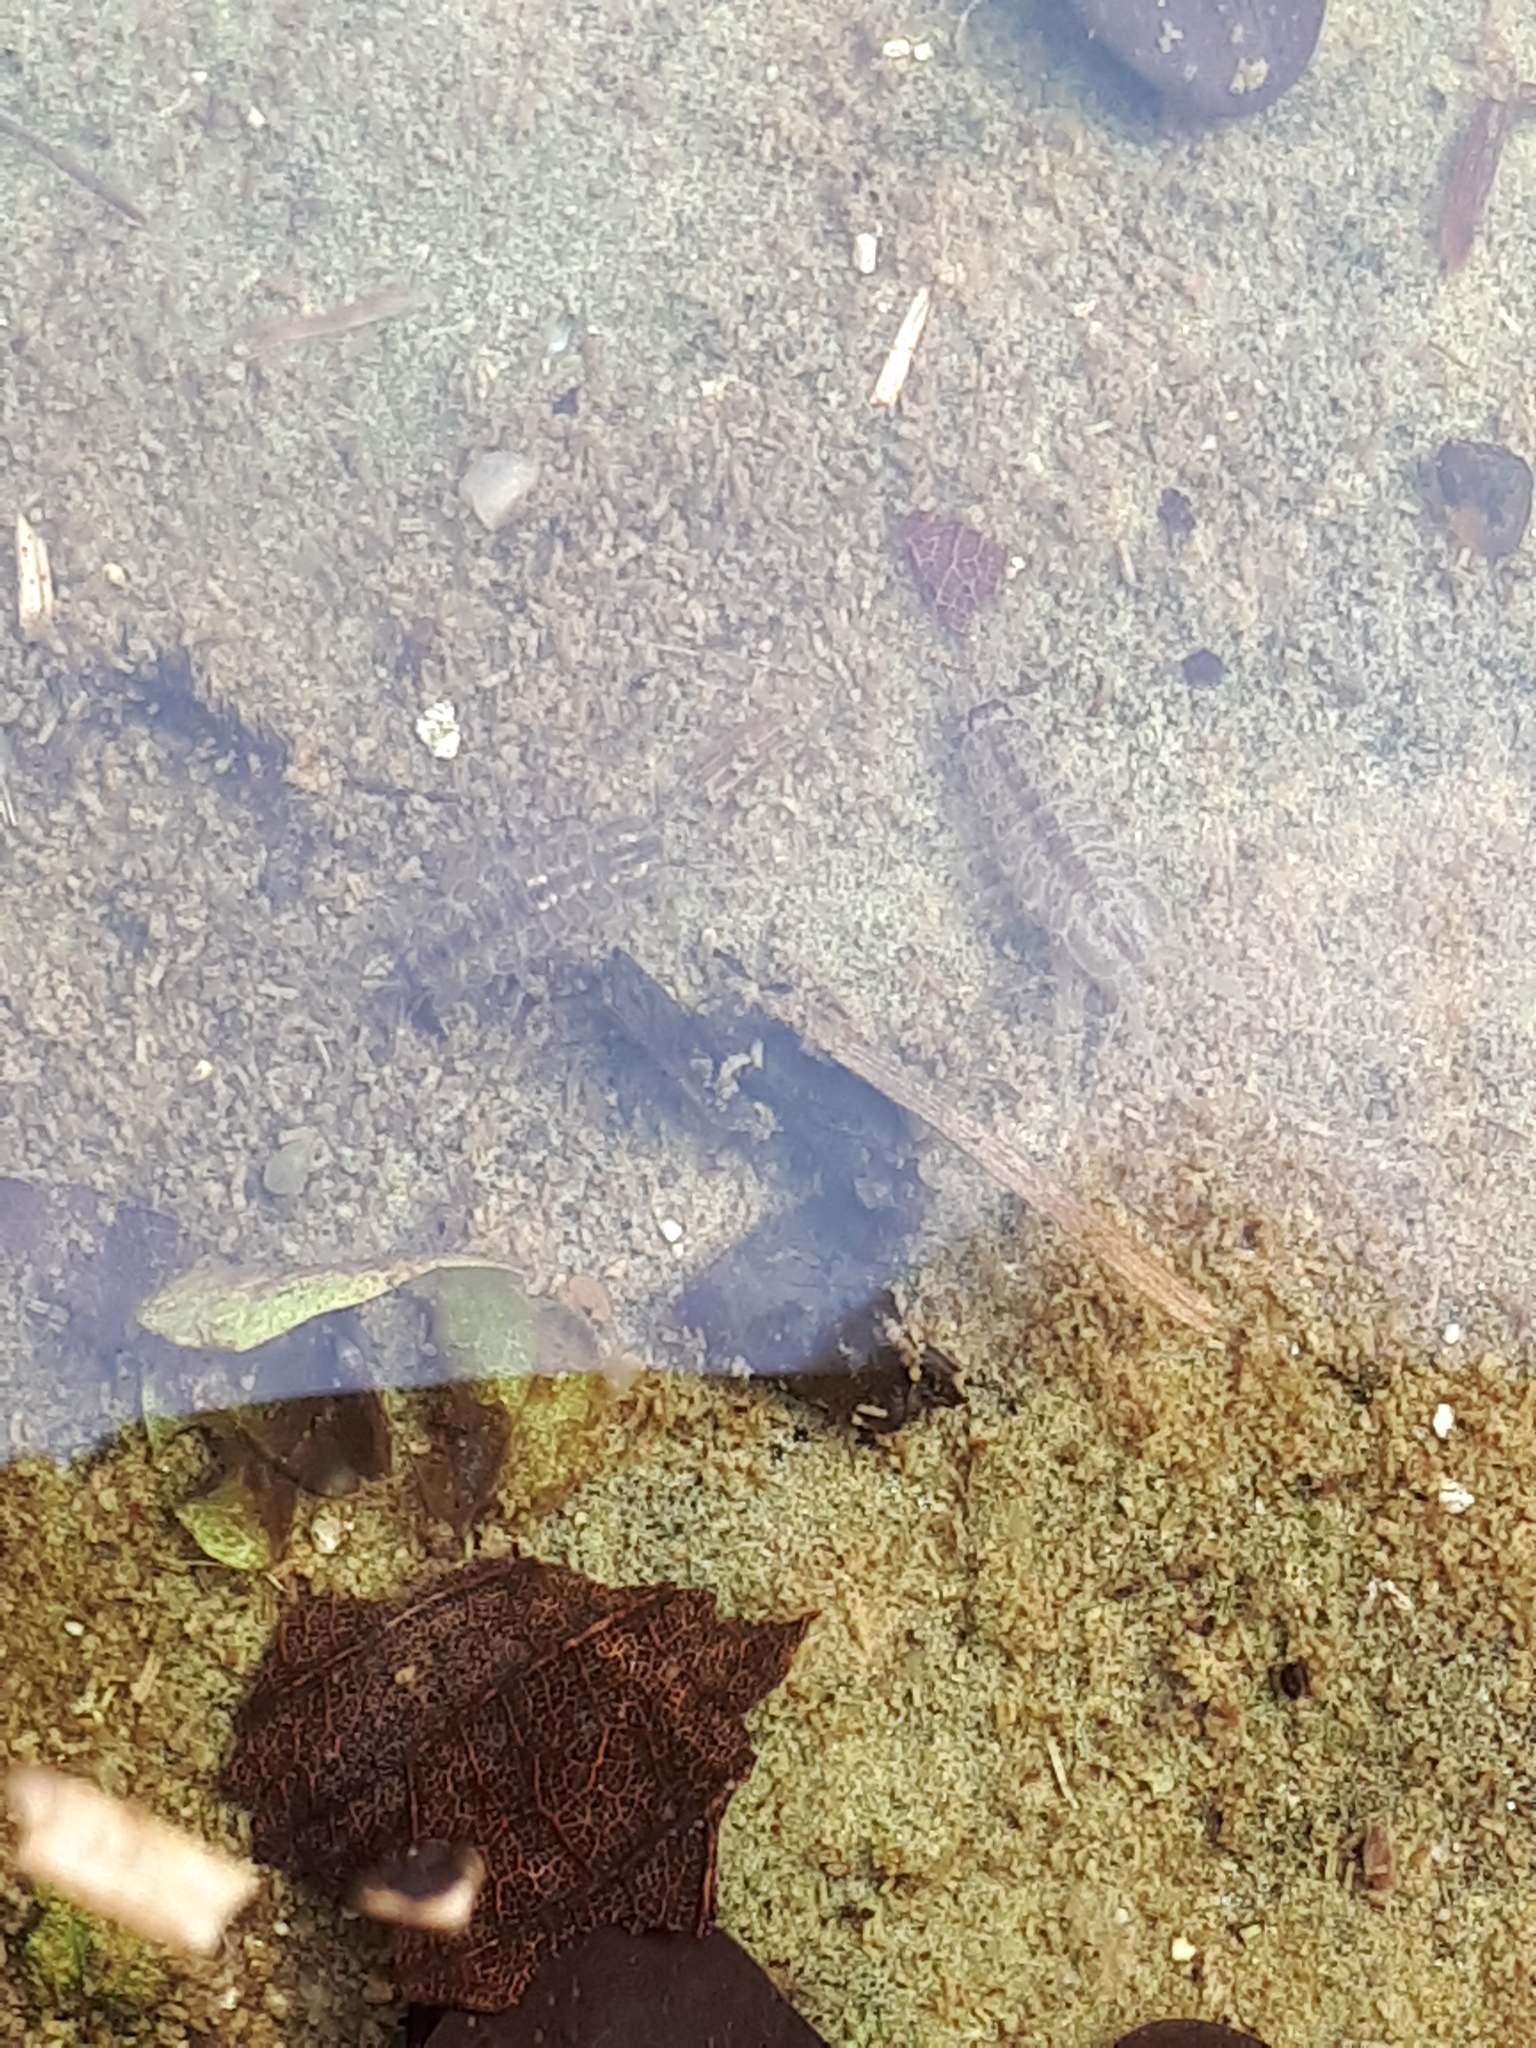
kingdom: Animalia
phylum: Arthropoda
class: Malacostraca
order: Isopoda
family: Asellidae
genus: Asellus
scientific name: Asellus aquaticus
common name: Water hog lice/slaters
